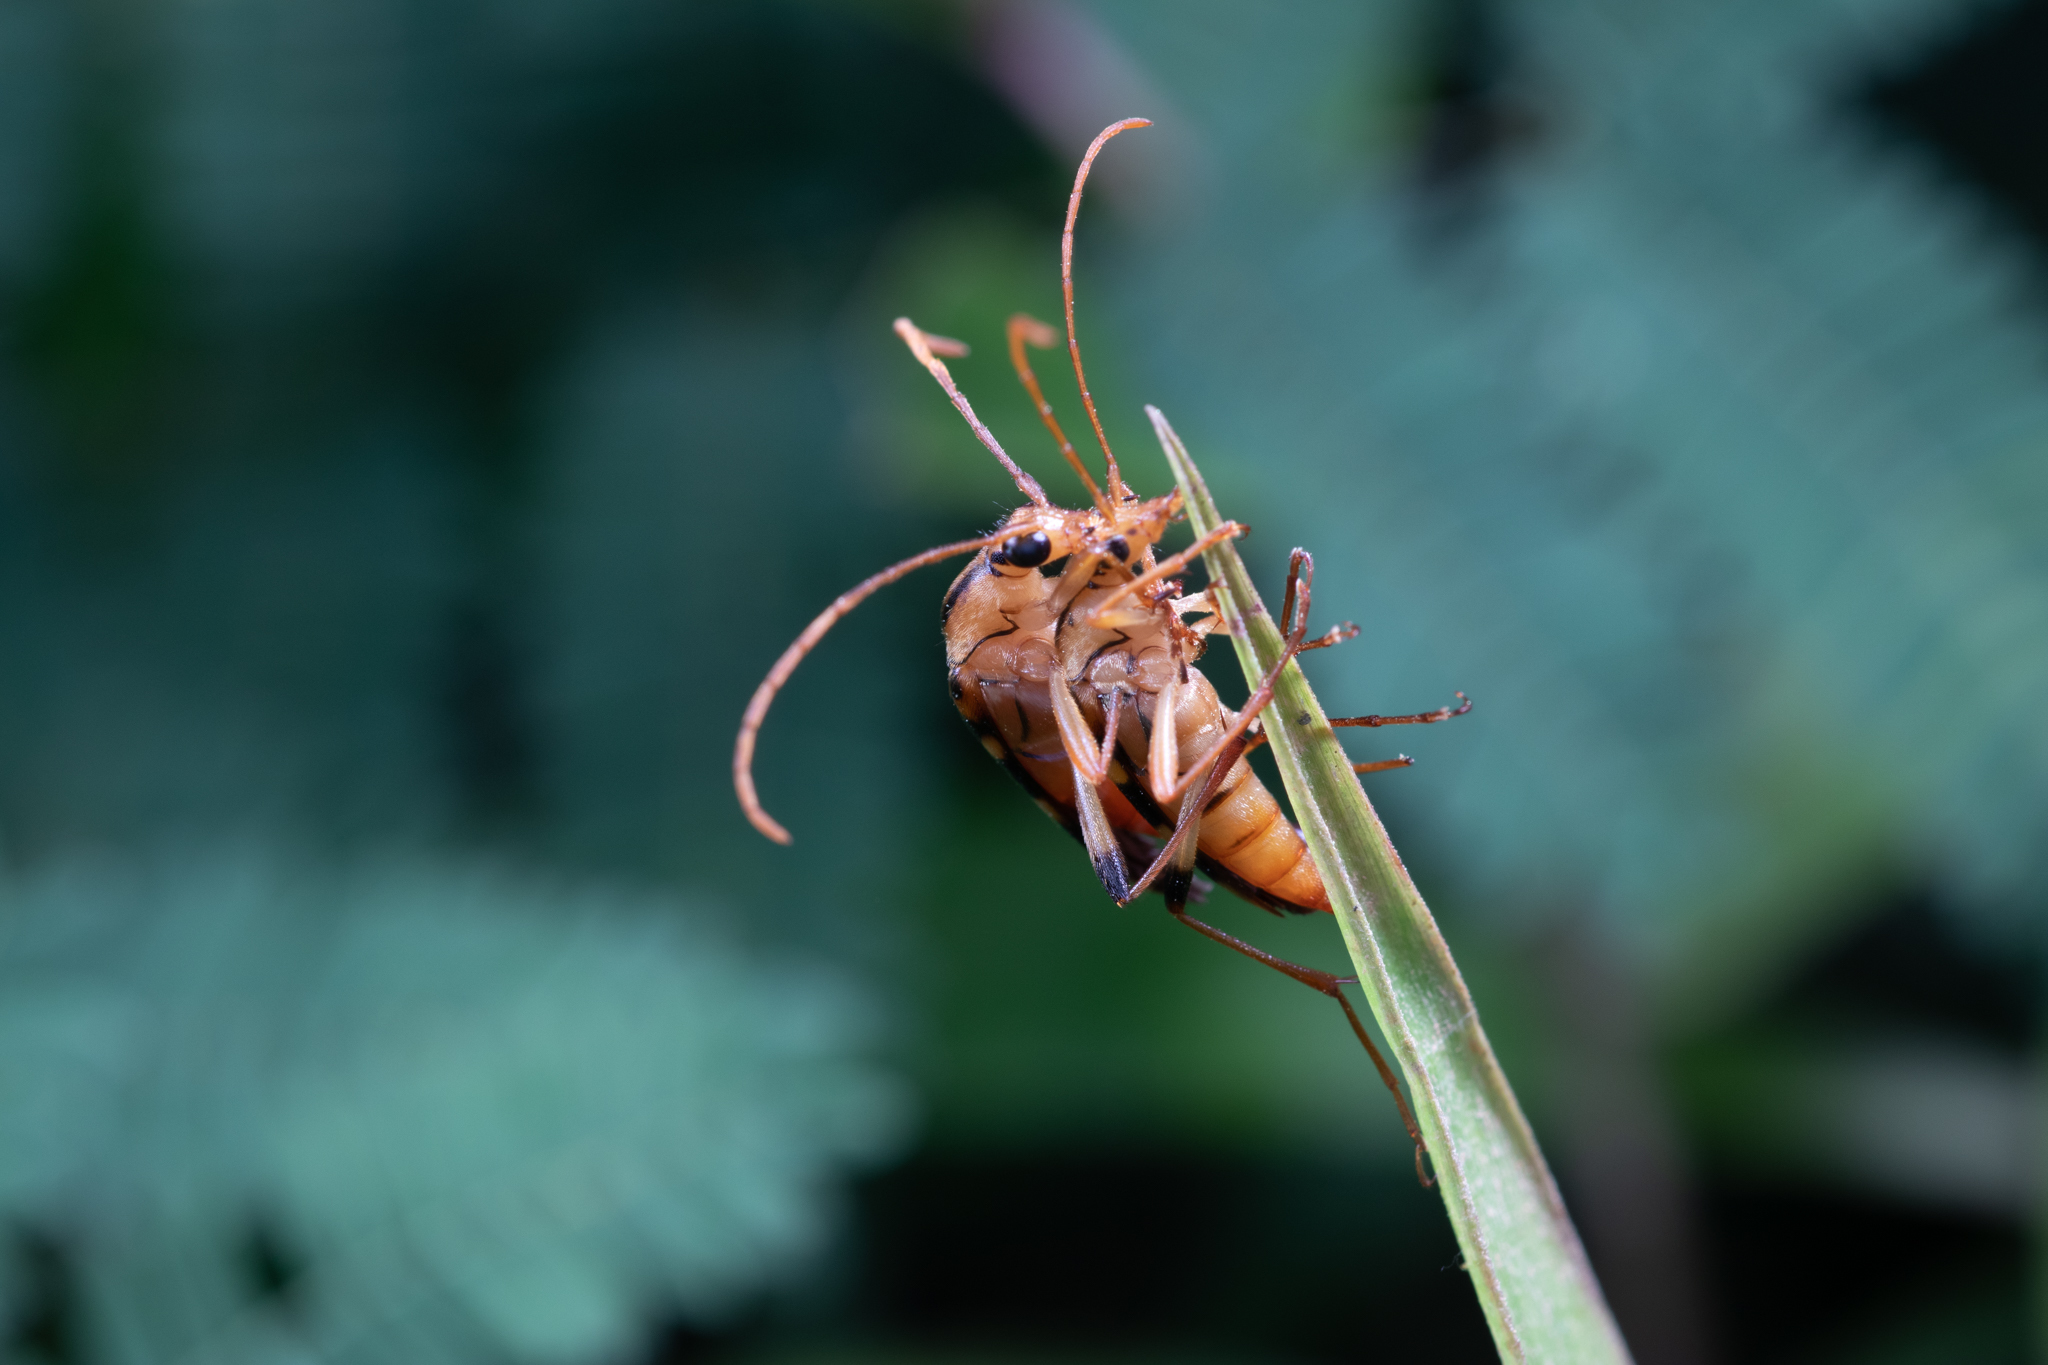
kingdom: Animalia
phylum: Arthropoda
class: Insecta
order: Coleoptera
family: Cerambycidae
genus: Strangalia
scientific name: Strangalia luteicornis
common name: Yellow-horned flower longhorn beetle
